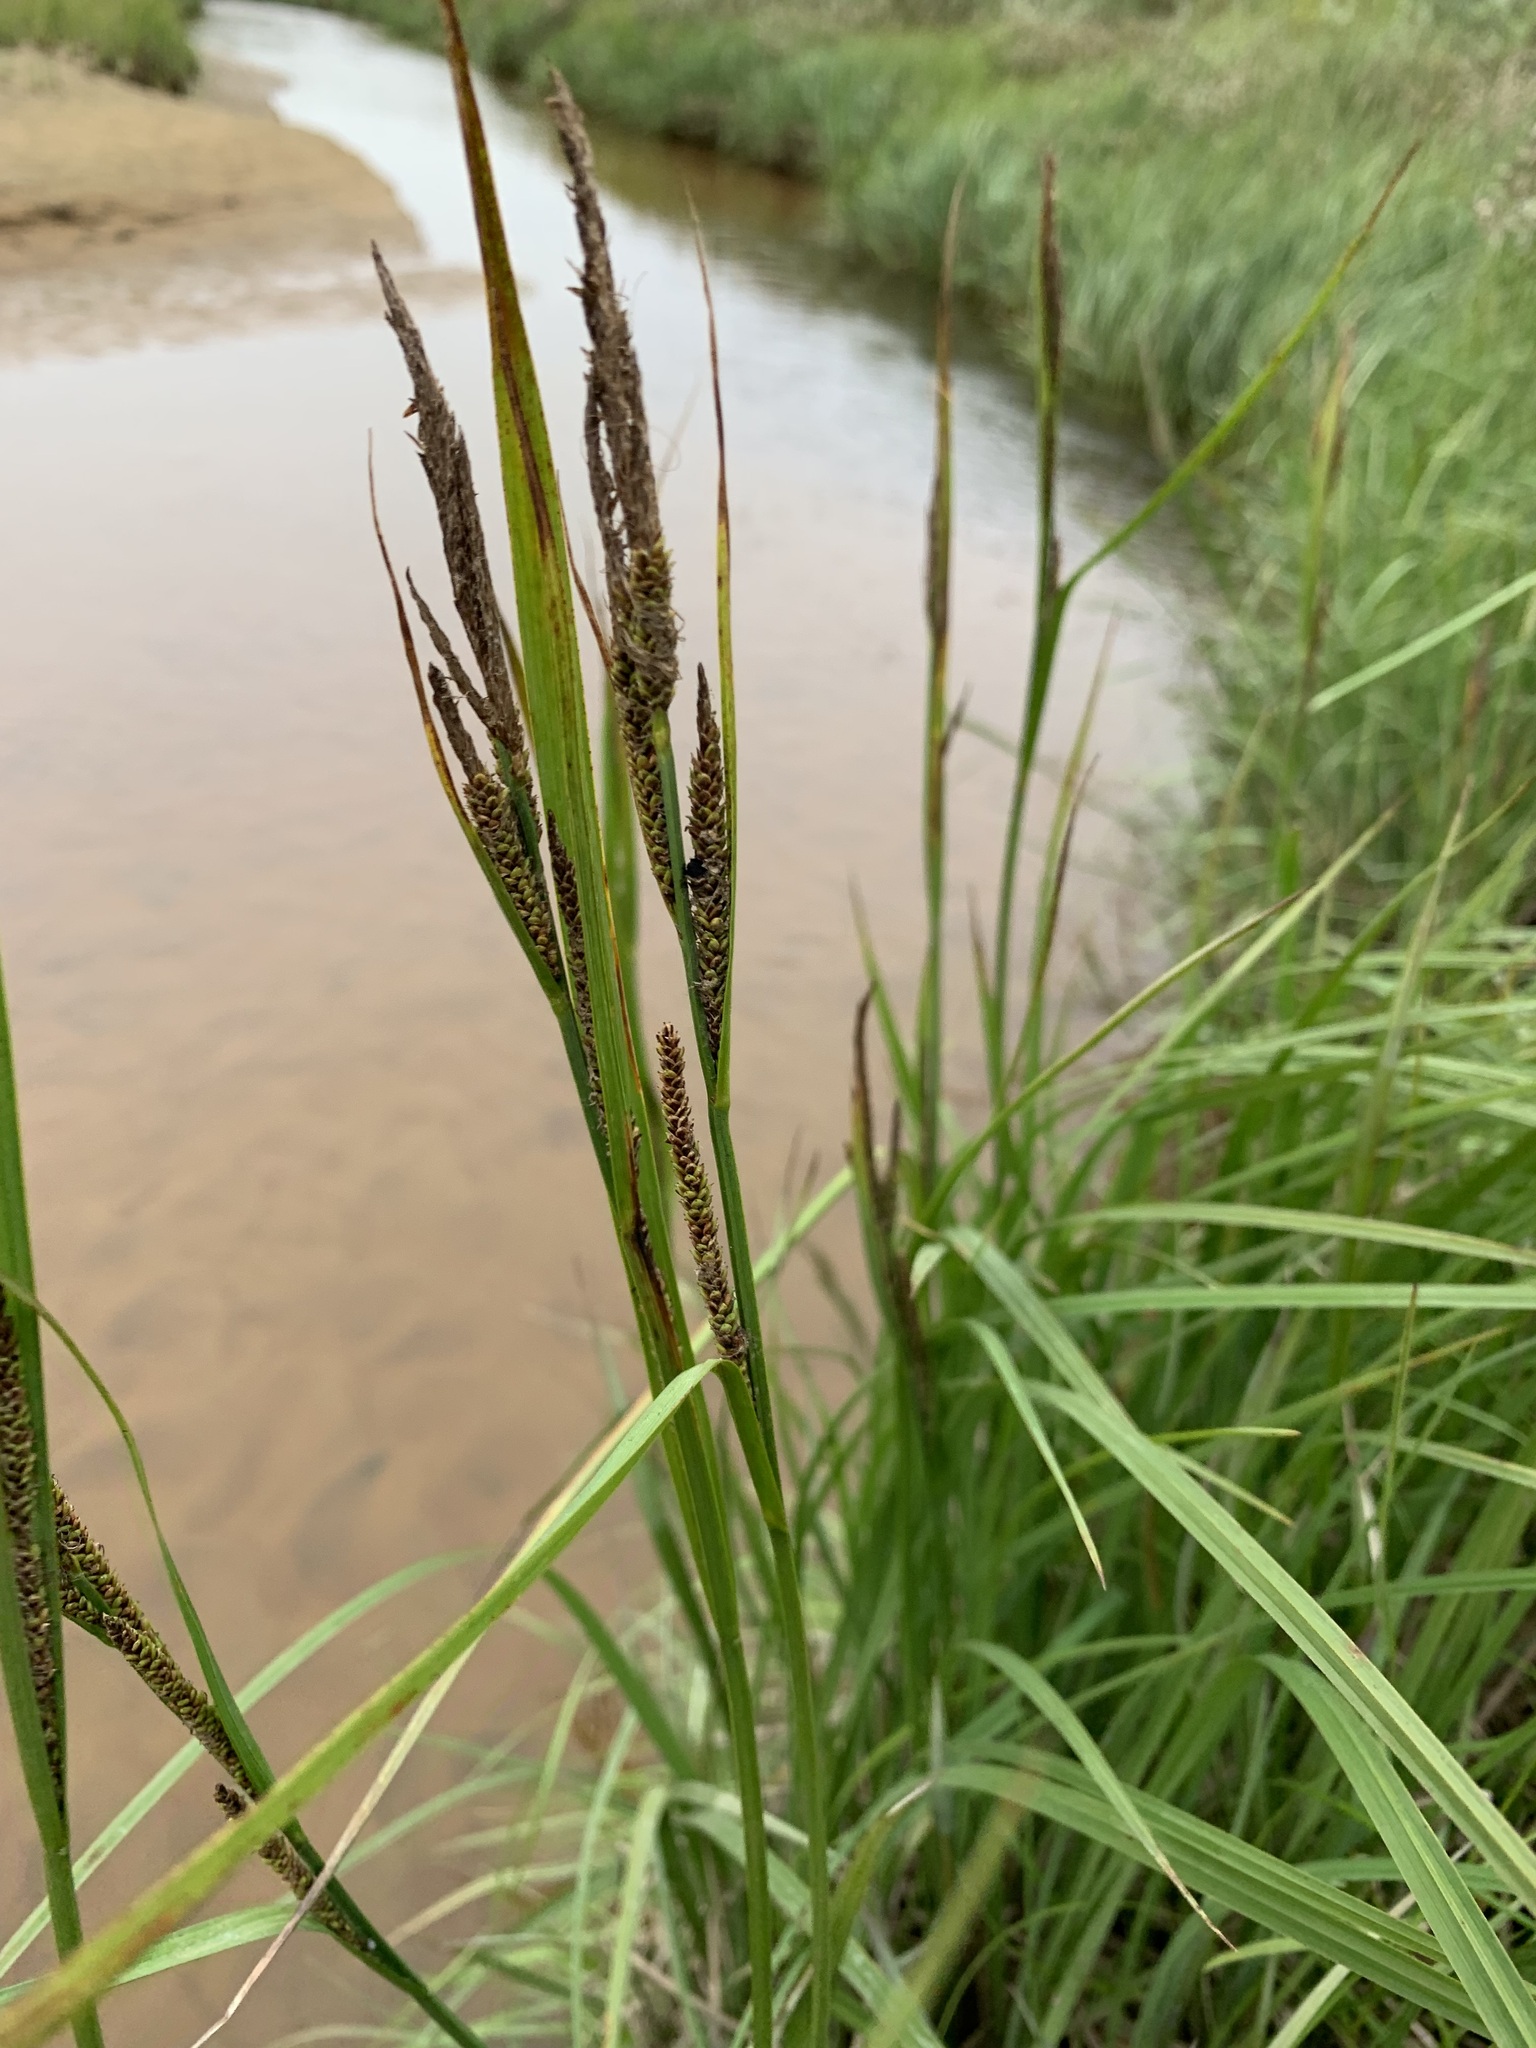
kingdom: Plantae
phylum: Tracheophyta
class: Liliopsida
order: Poales
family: Cyperaceae
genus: Carex
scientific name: Carex aquatilis
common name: Water sedge
